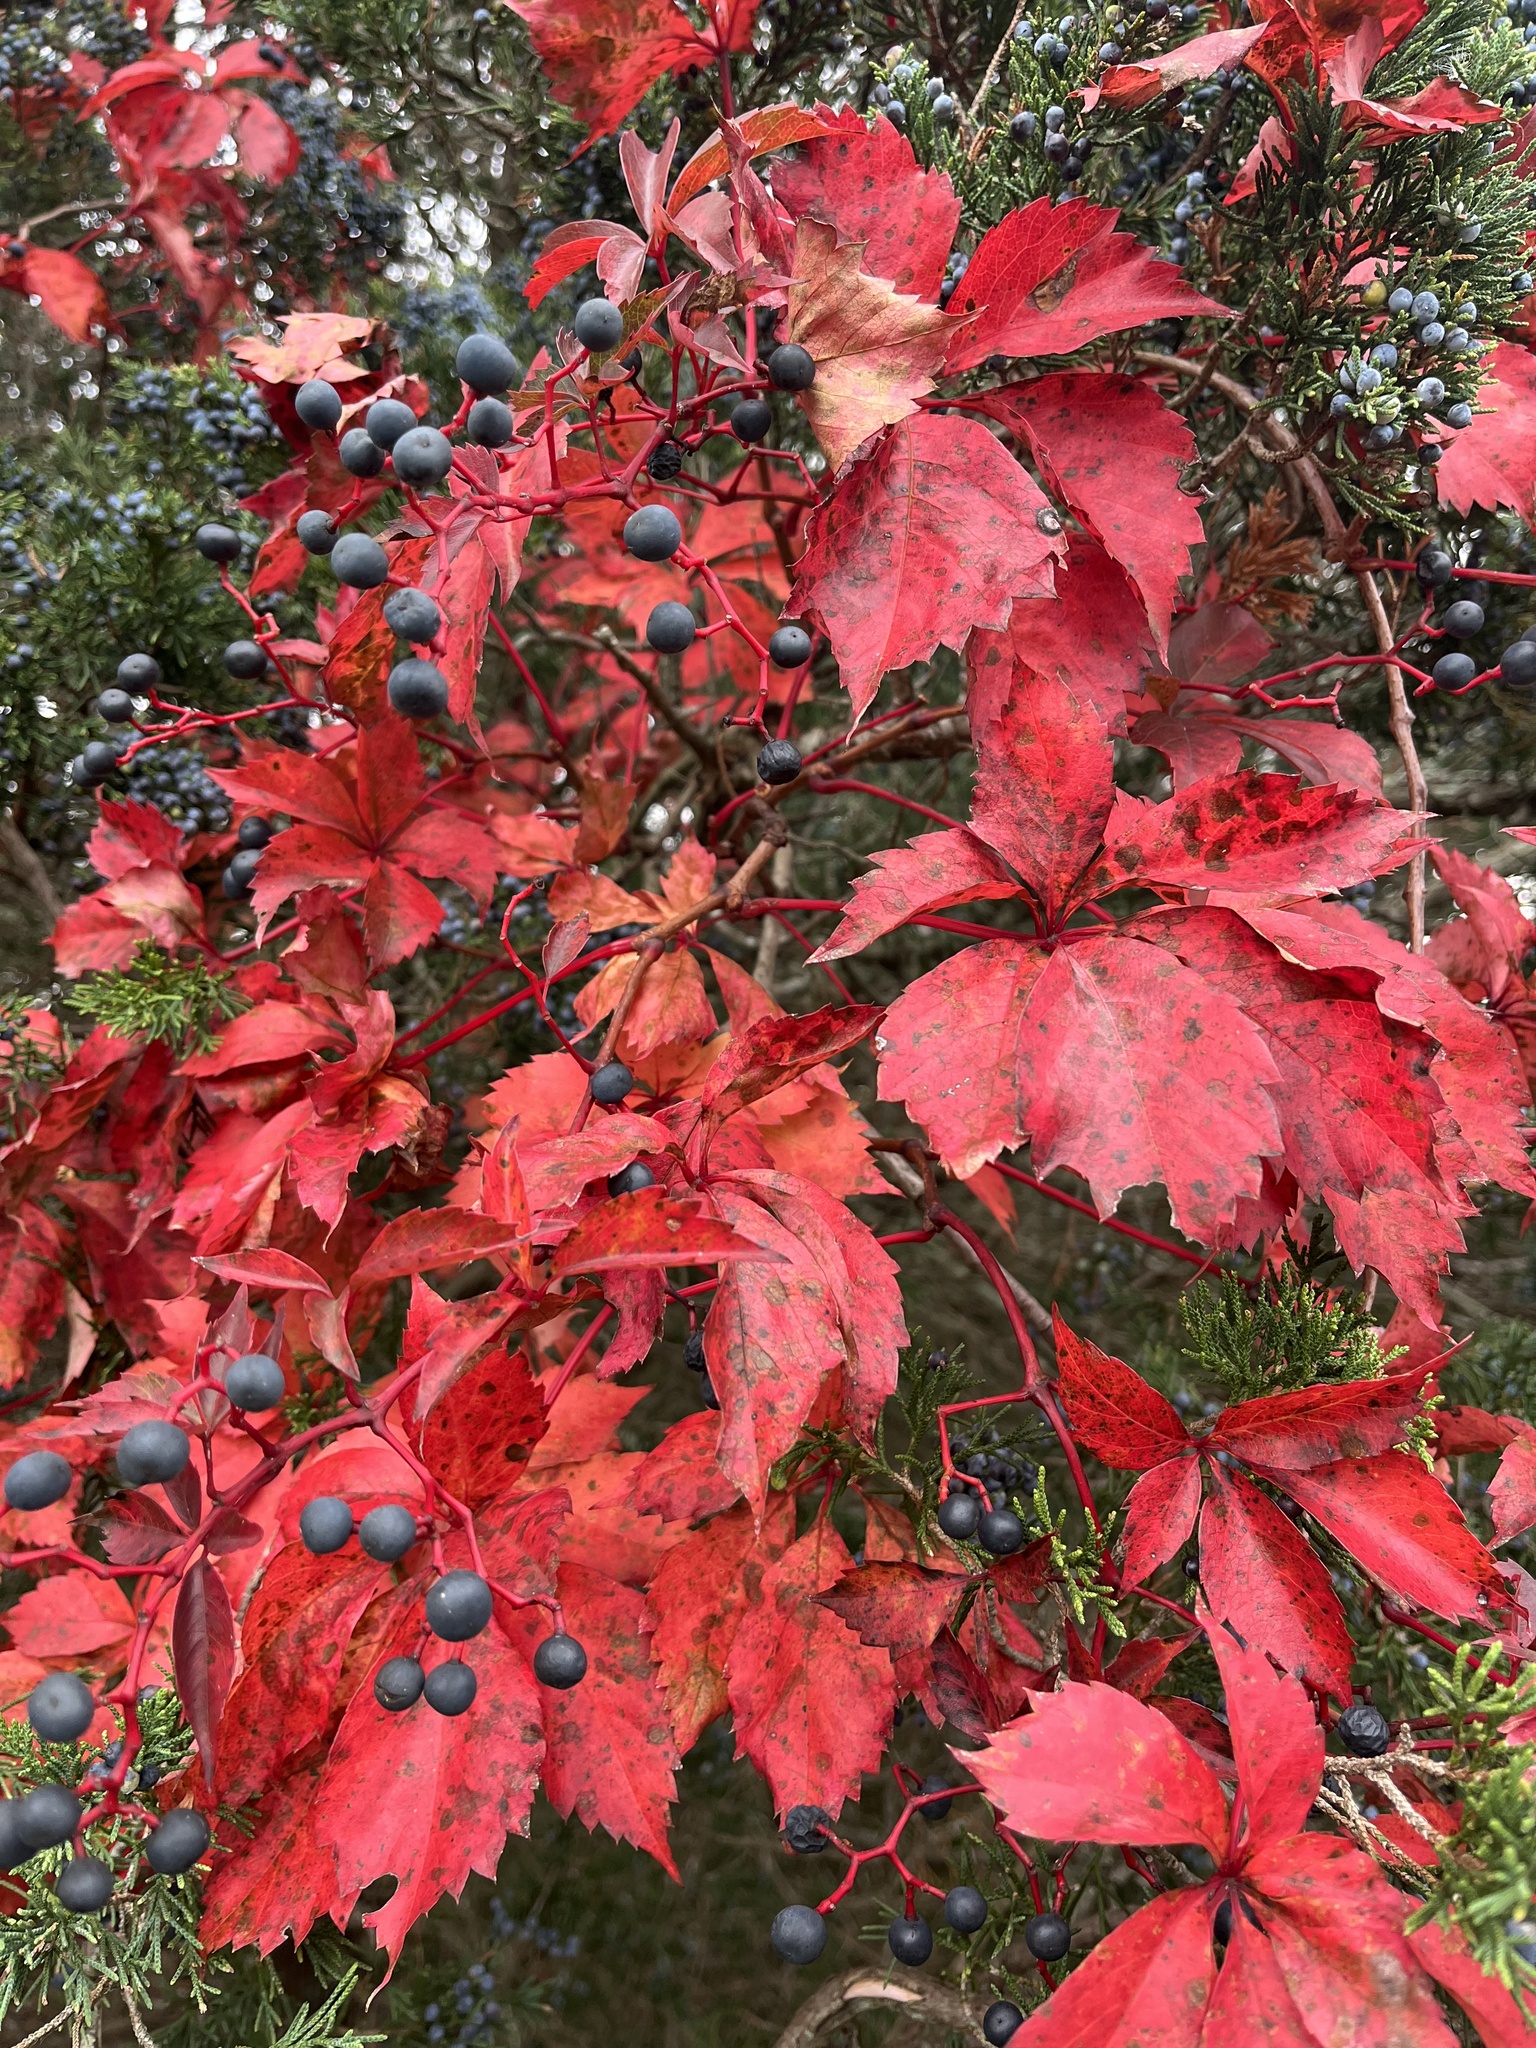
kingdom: Plantae
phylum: Tracheophyta
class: Magnoliopsida
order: Vitales
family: Vitaceae
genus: Parthenocissus
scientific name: Parthenocissus quinquefolia
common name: Virginia-creeper
